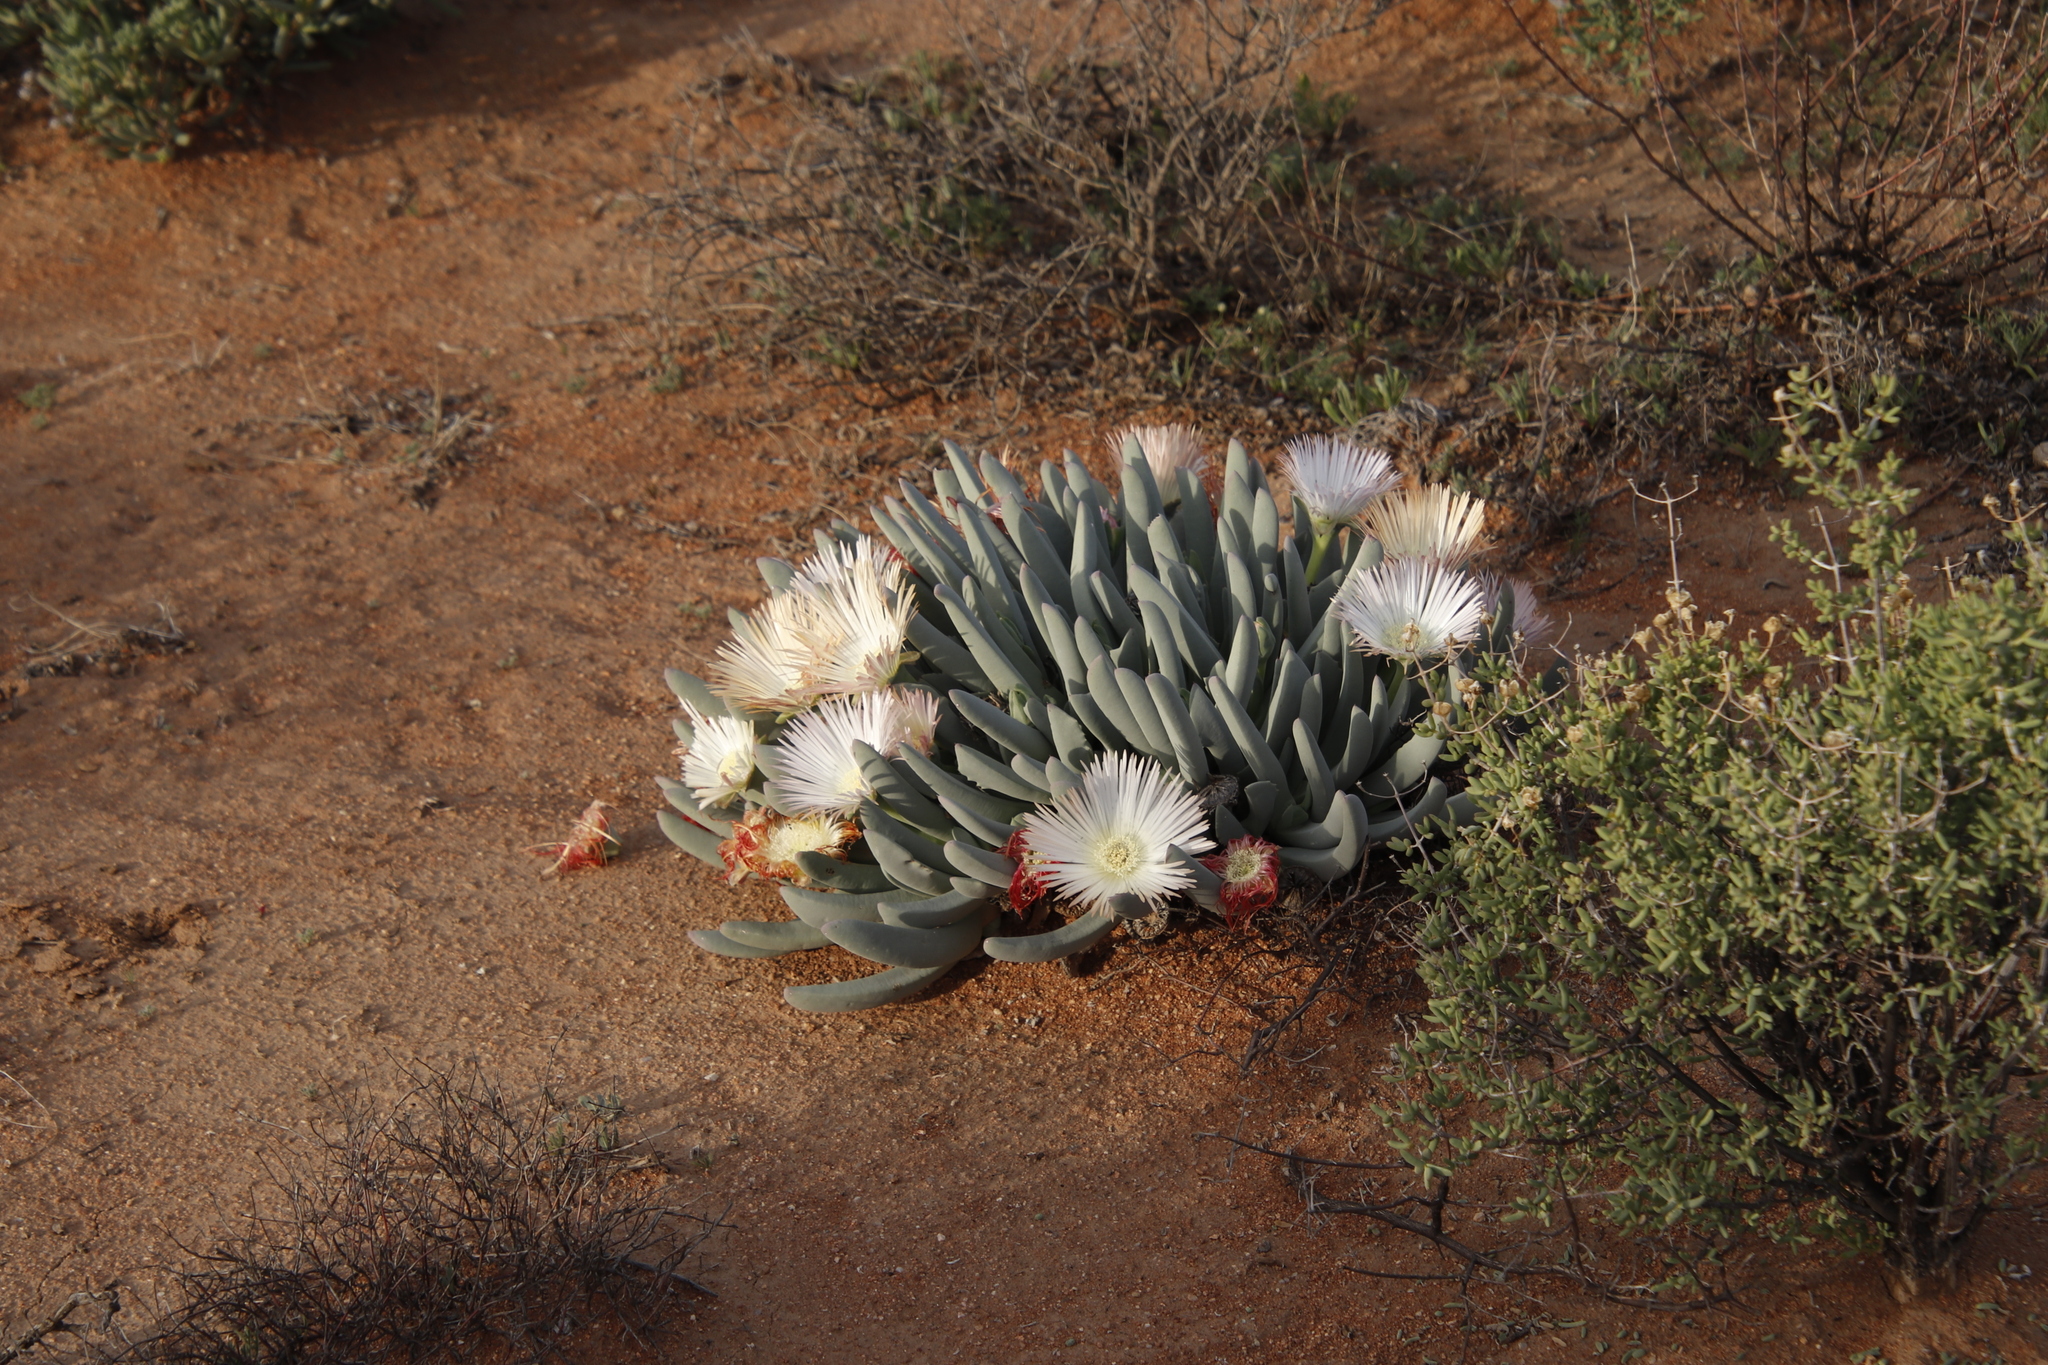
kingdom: Plantae
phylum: Tracheophyta
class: Magnoliopsida
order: Caryophyllales
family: Aizoaceae
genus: Cheiridopsis
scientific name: Cheiridopsis denticulata
